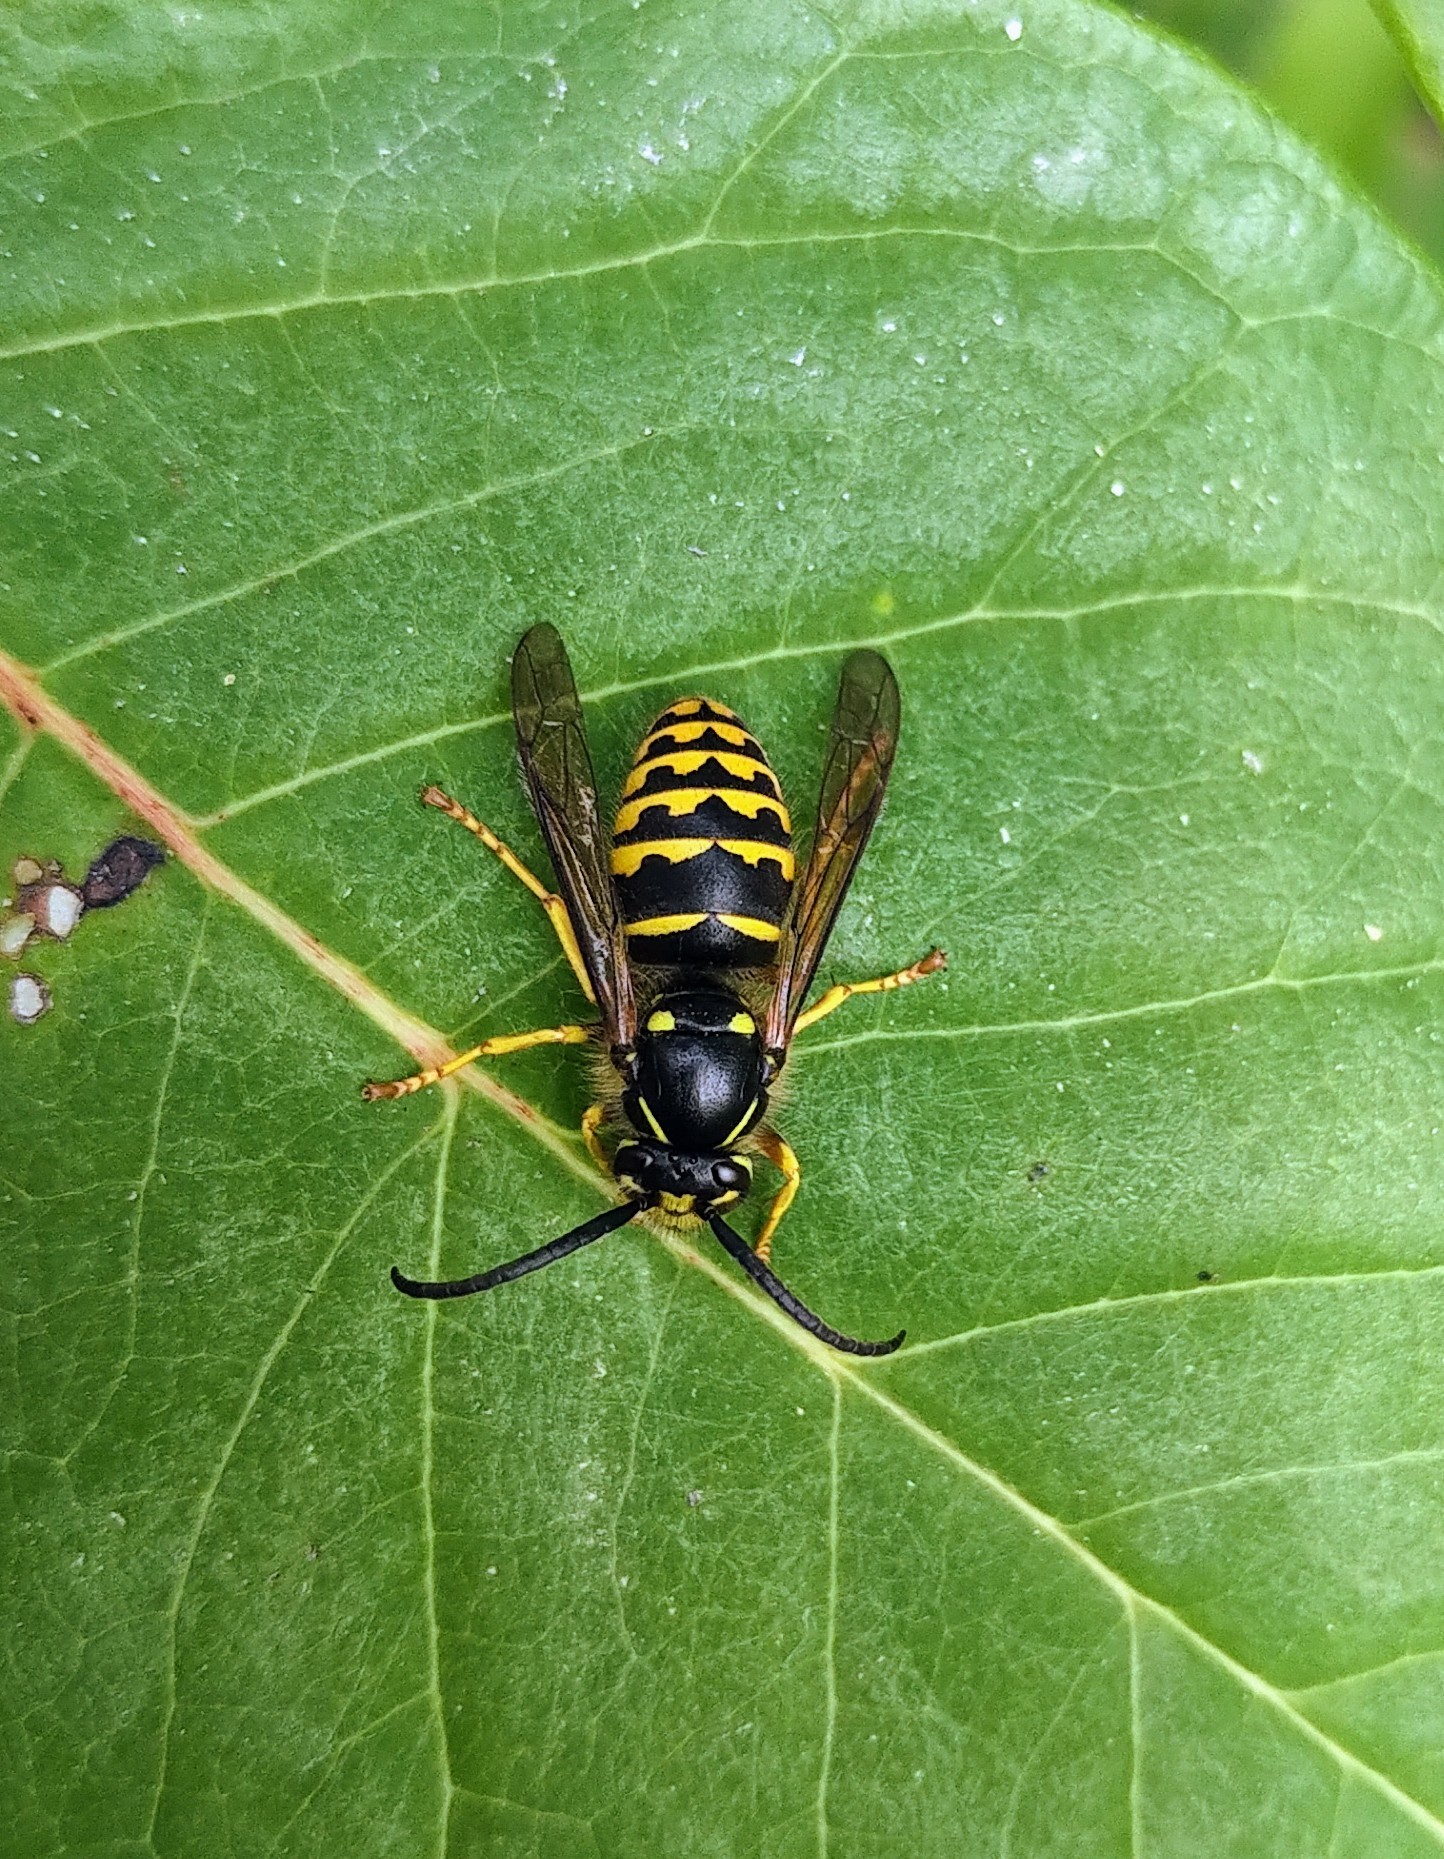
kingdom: Animalia
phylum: Arthropoda
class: Insecta
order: Hymenoptera
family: Vespidae
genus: Dolichovespula
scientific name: Dolichovespula arenaria
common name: Aerial yellowjacket
